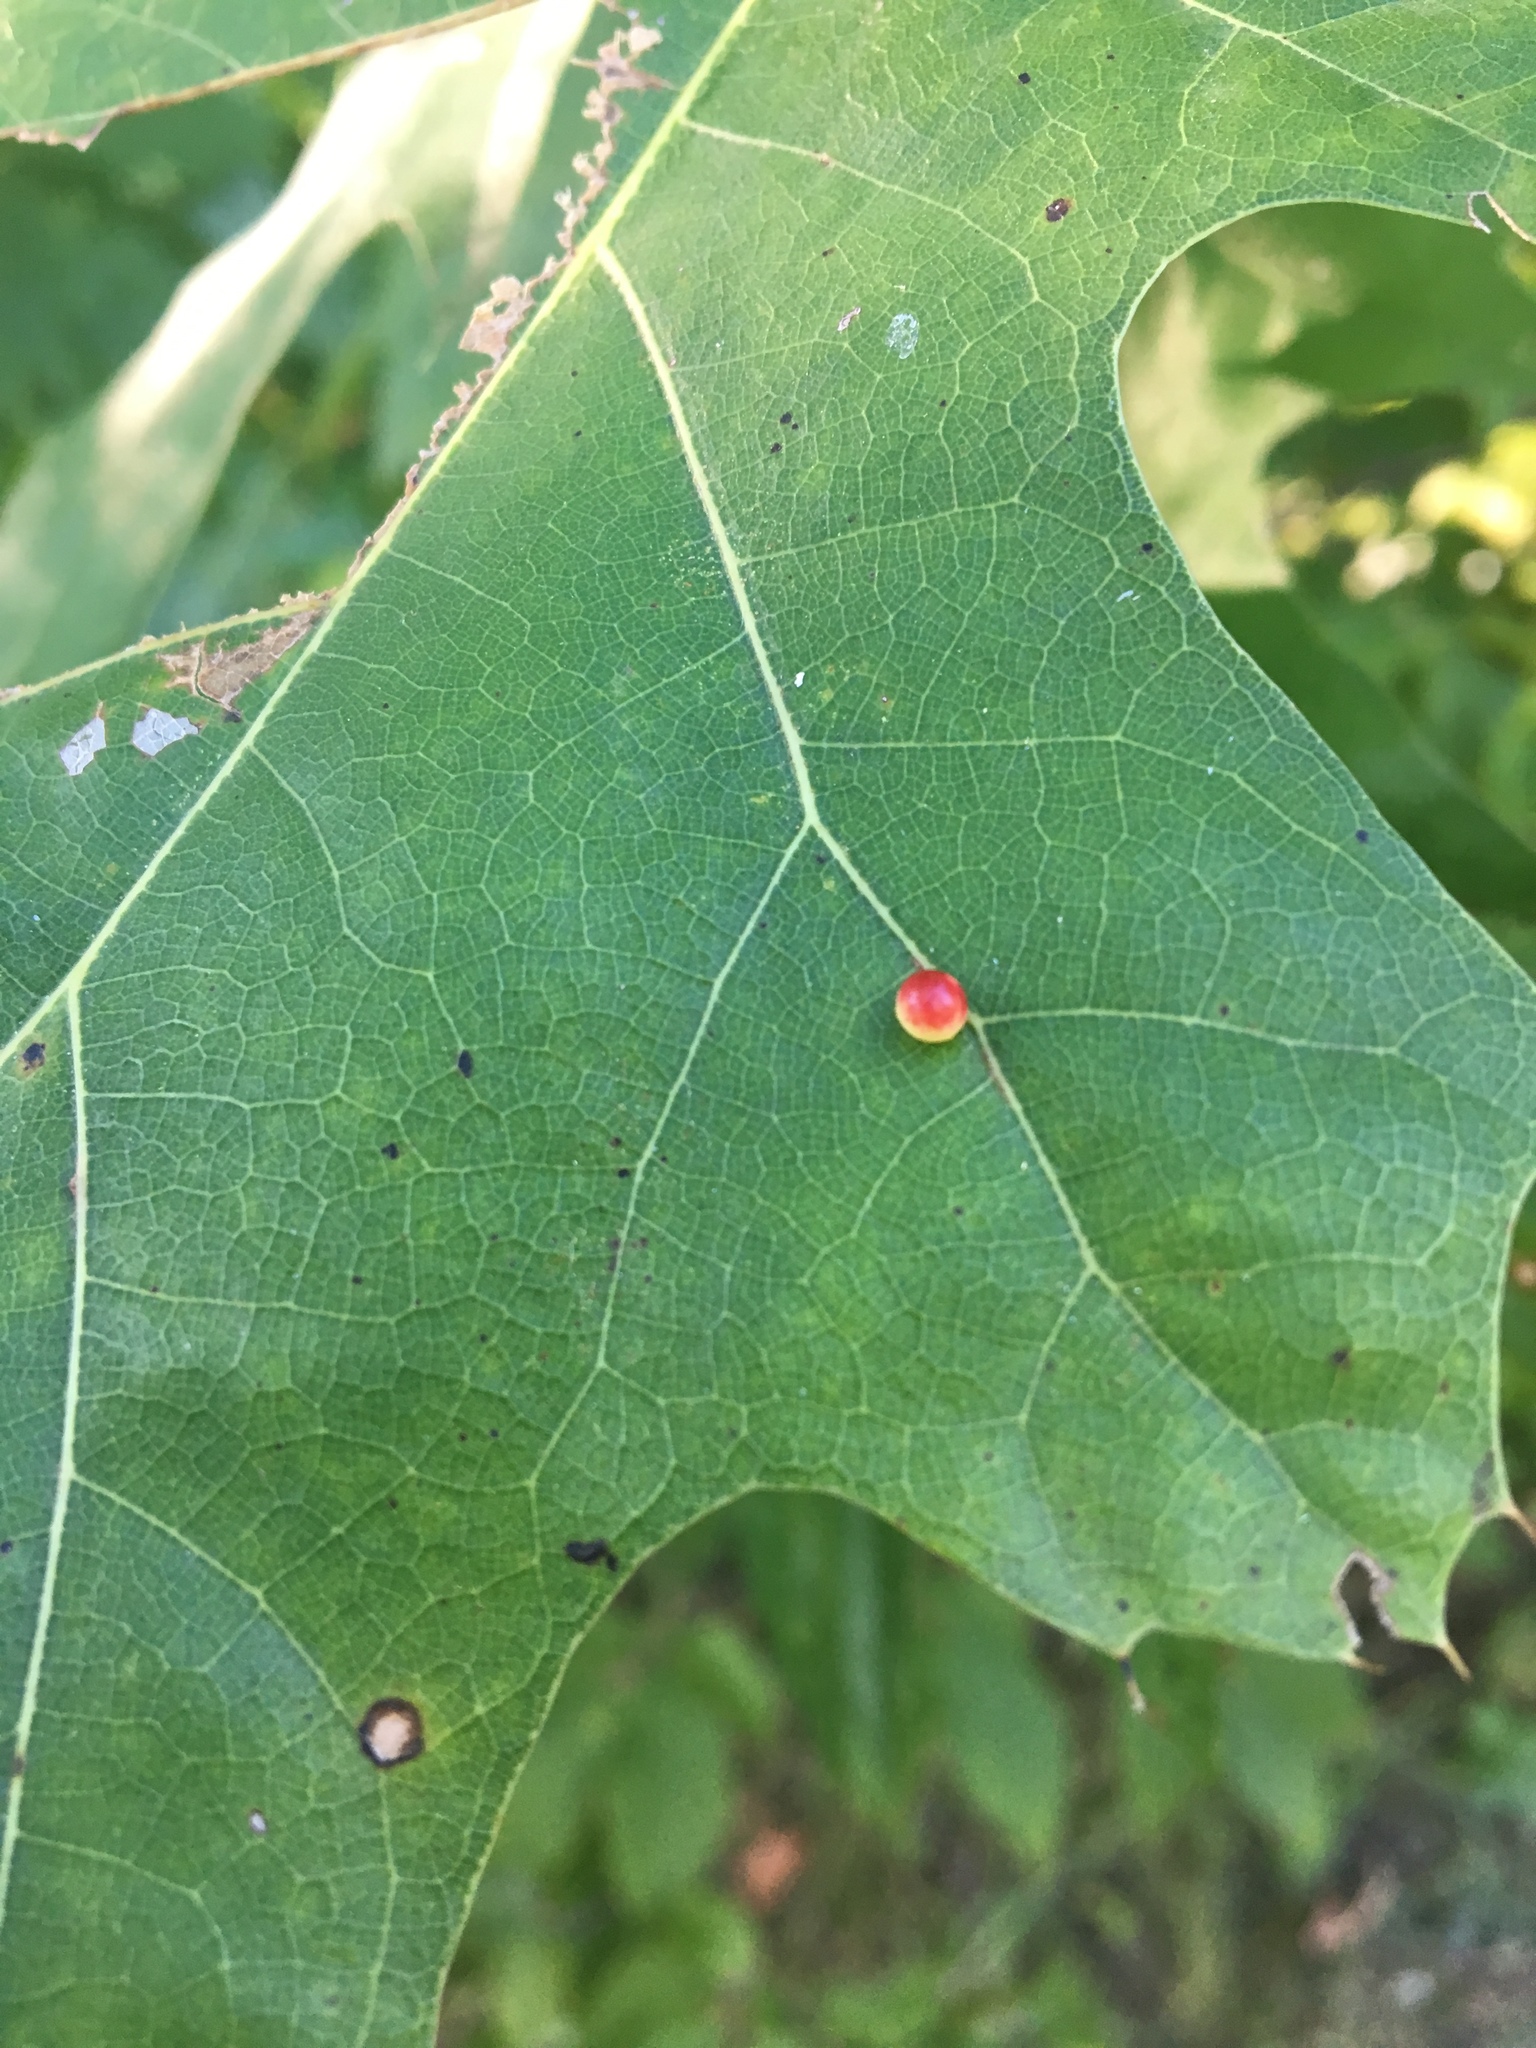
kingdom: Animalia
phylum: Arthropoda
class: Insecta
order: Hymenoptera
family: Cynipidae
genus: Zopheroteras
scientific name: Zopheroteras
